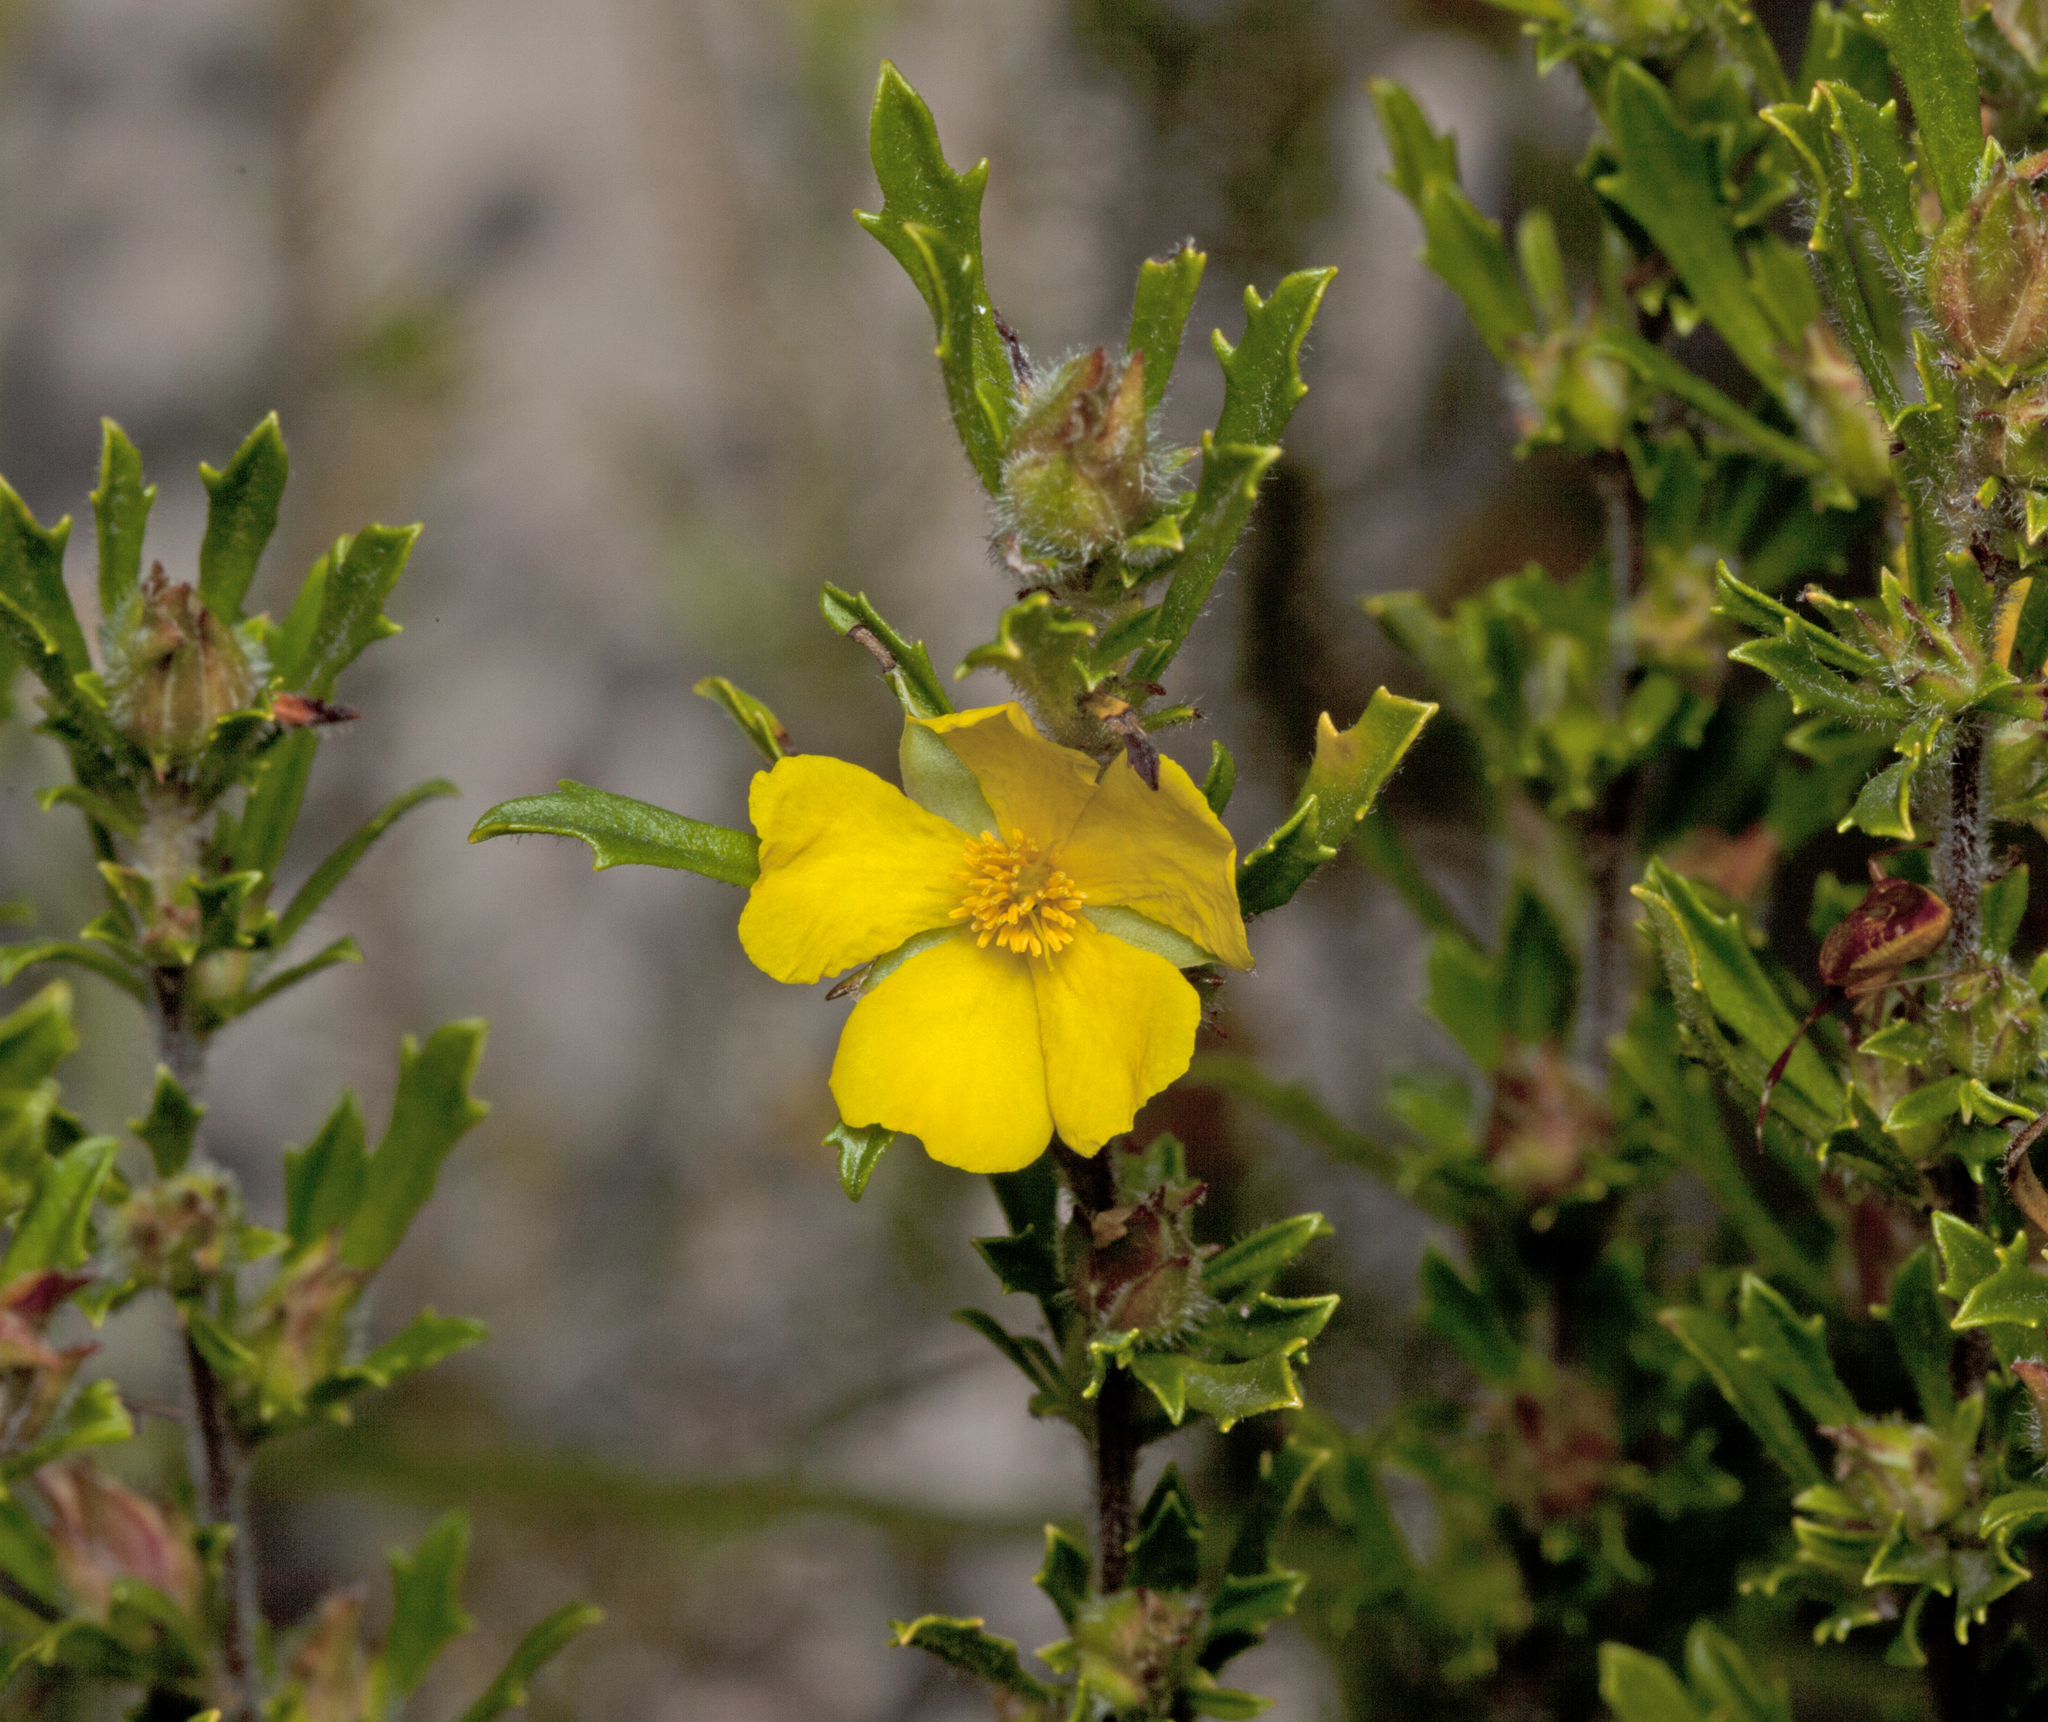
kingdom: Plantae
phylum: Tracheophyta
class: Magnoliopsida
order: Dilleniales
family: Dilleniaceae
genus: Hibbertia
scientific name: Hibbertia linearis
